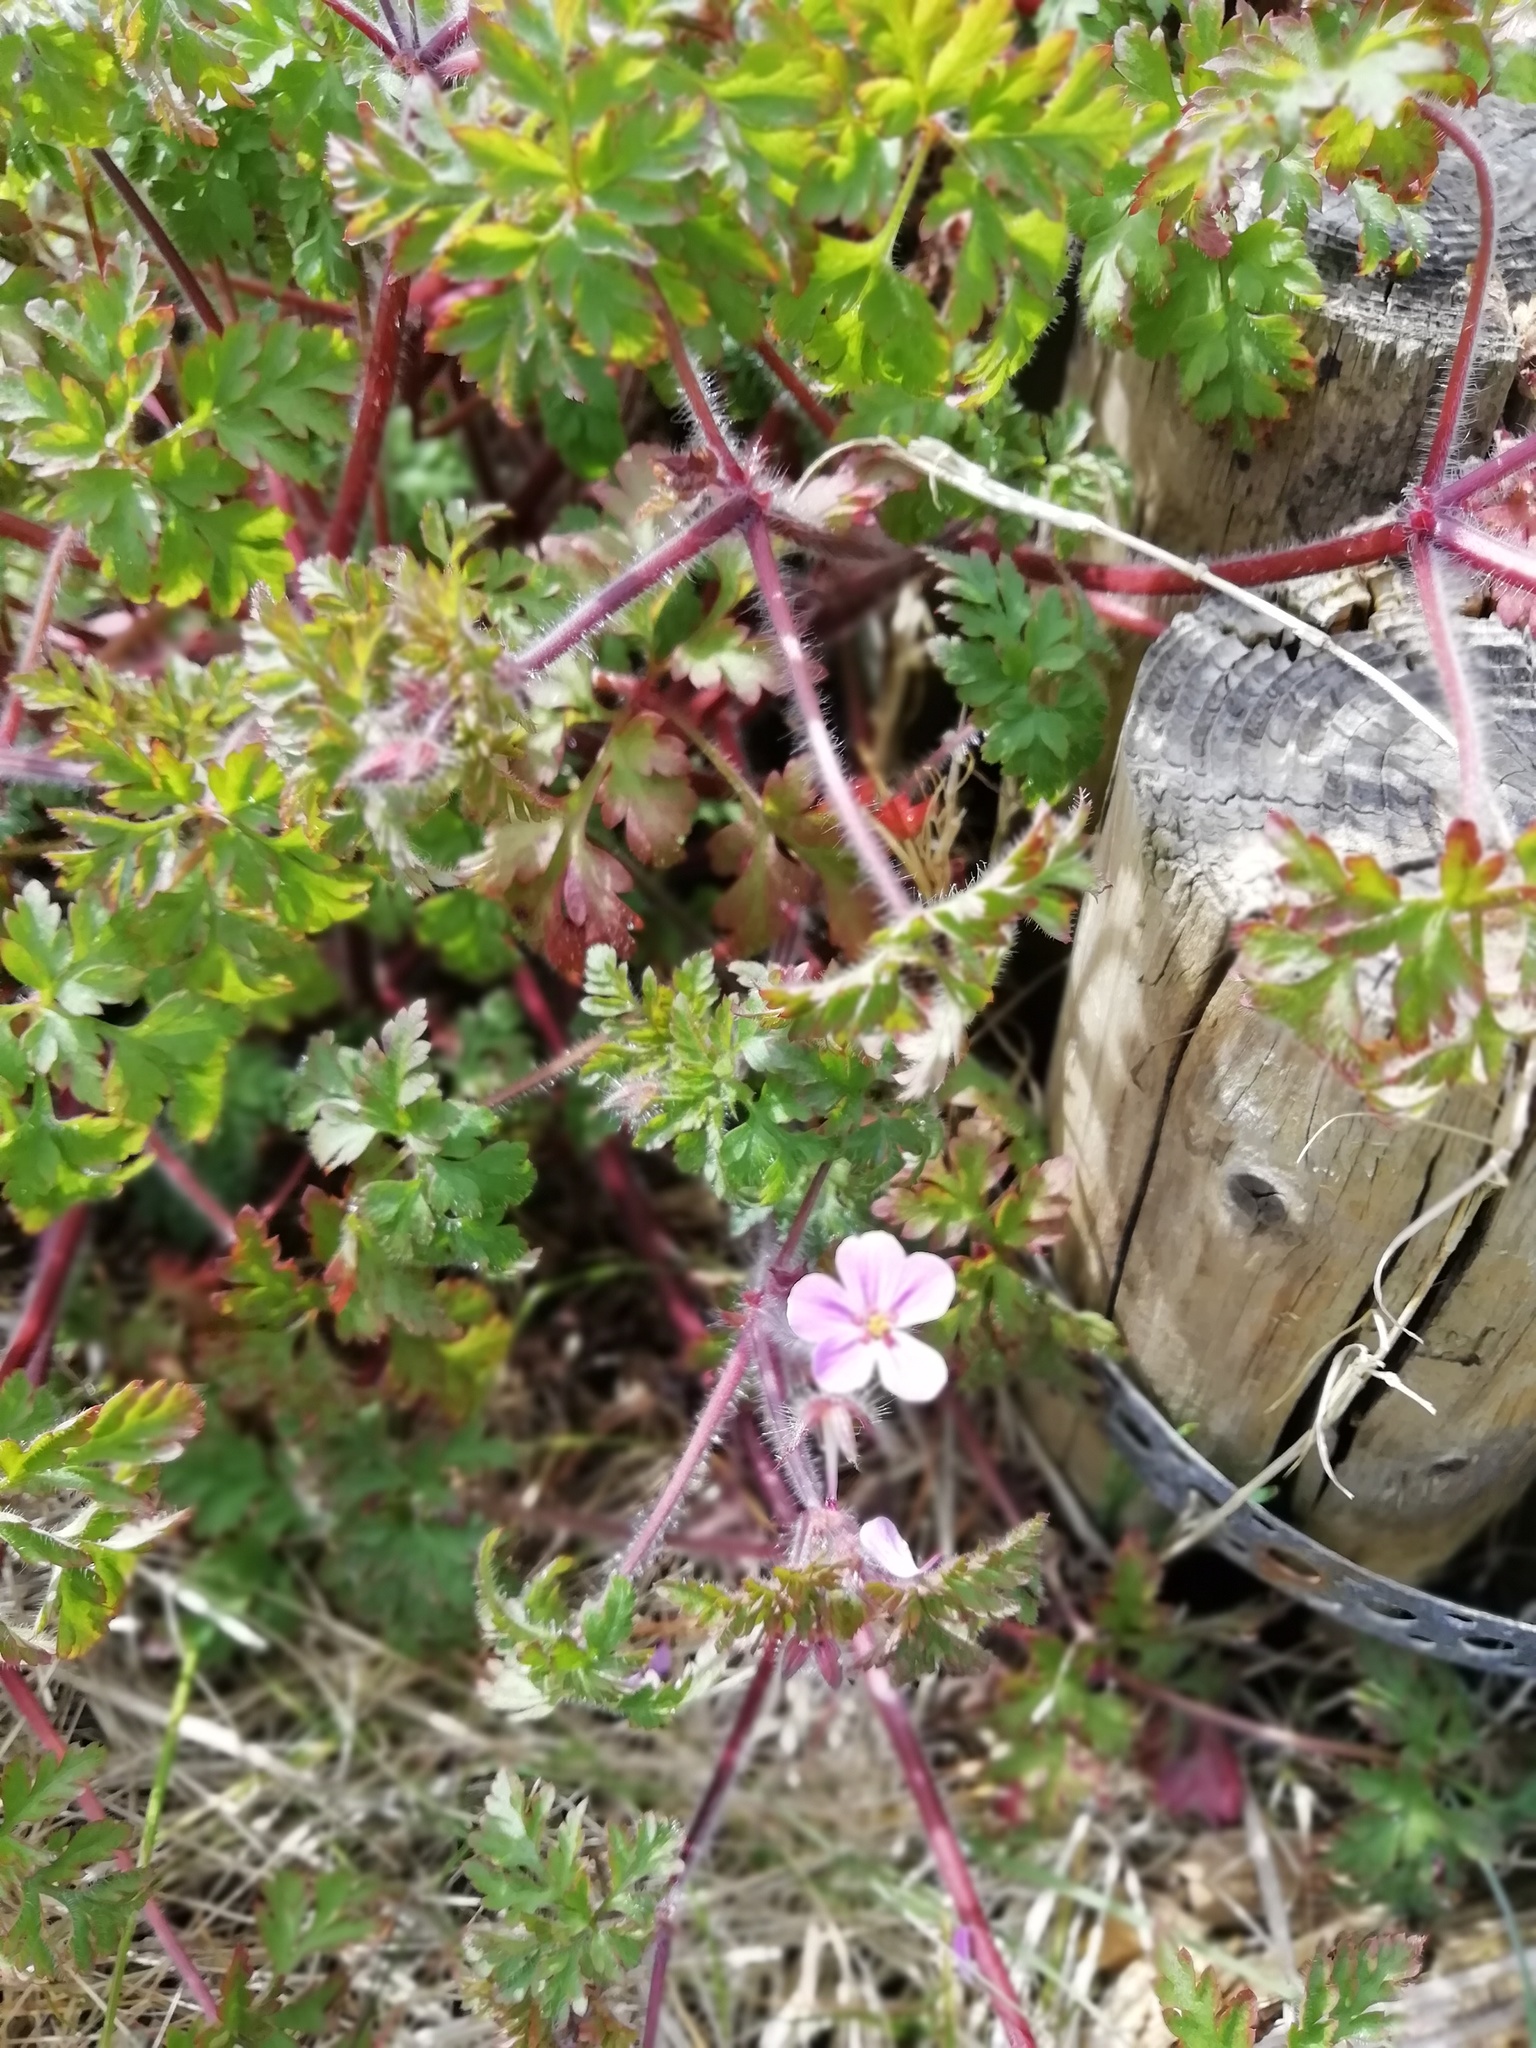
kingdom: Plantae
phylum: Tracheophyta
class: Magnoliopsida
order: Geraniales
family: Geraniaceae
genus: Geranium
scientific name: Geranium robertianum
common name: Herb-robert
